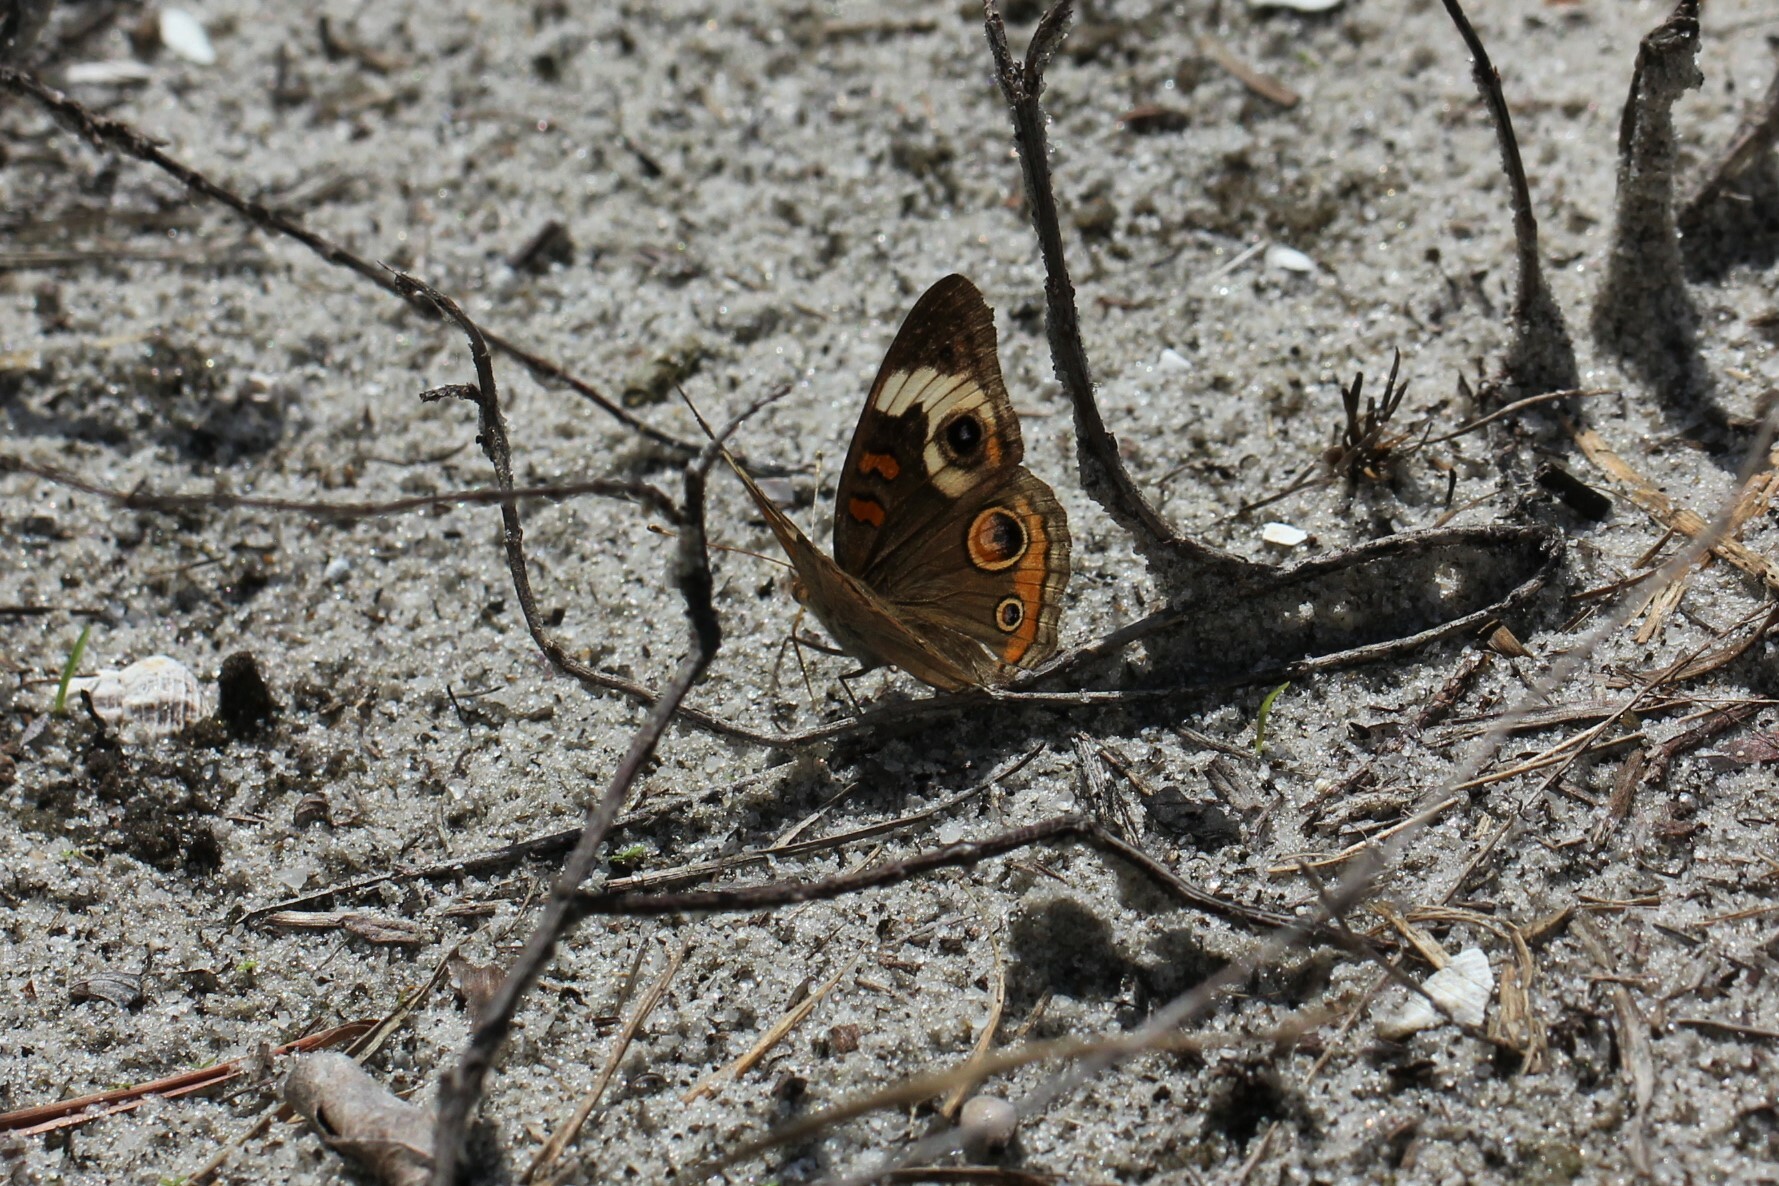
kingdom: Animalia
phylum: Arthropoda
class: Insecta
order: Lepidoptera
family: Nymphalidae
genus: Junonia
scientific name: Junonia coenia
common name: Common buckeye
